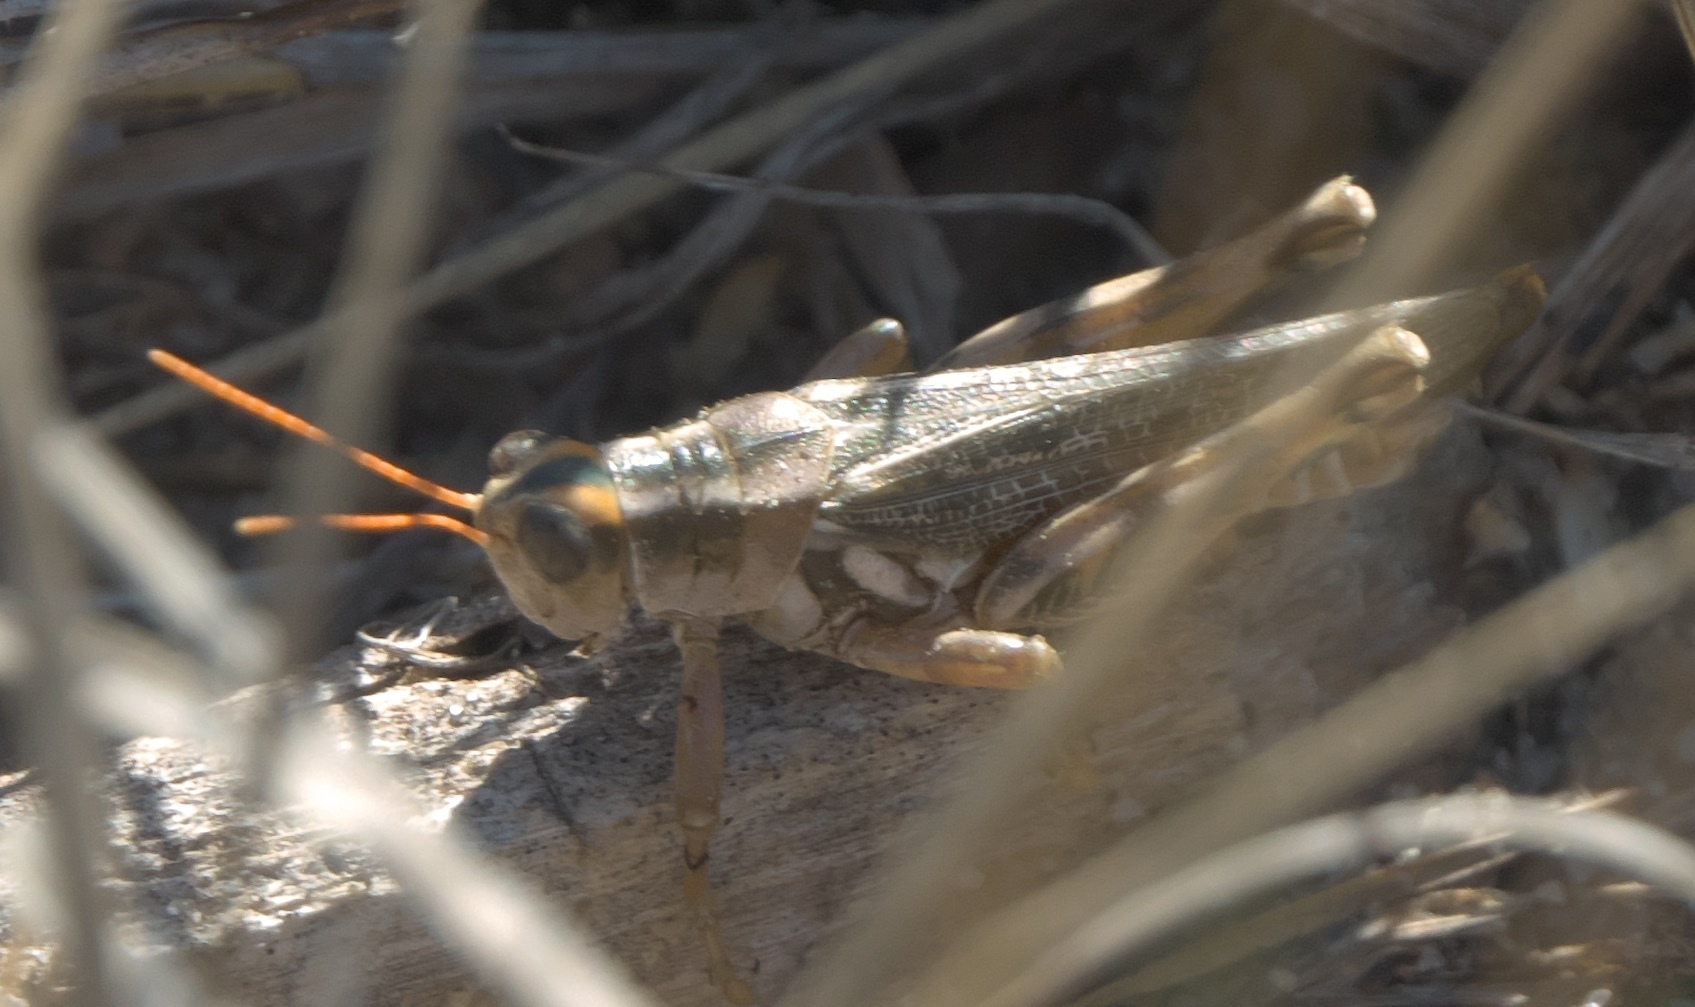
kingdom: Animalia
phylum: Arthropoda
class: Insecta
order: Orthoptera
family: Acrididae
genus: Aeoloplides
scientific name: Aeoloplides turnbulli
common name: Russianthistle grasshopper
